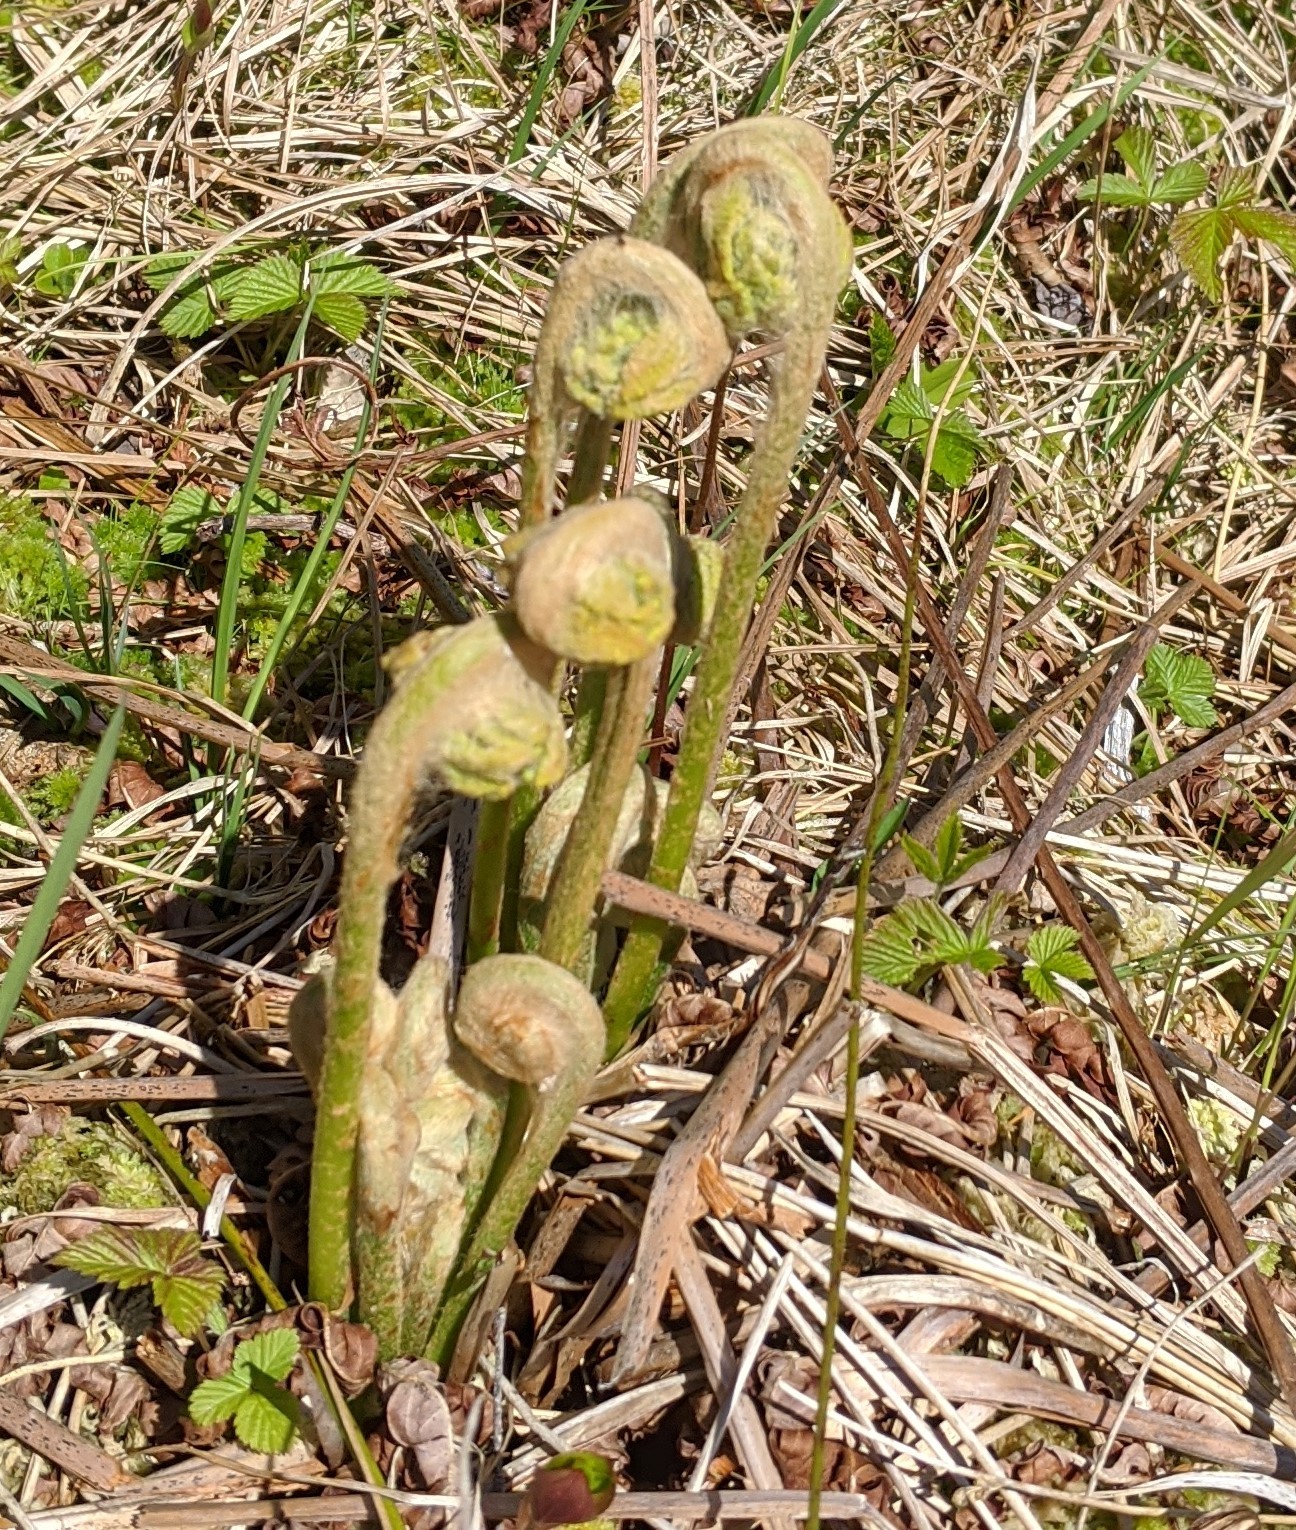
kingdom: Plantae
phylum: Tracheophyta
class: Polypodiopsida
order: Osmundales
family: Osmundaceae
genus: Osmundastrum
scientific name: Osmundastrum cinnamomeum
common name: Cinnamon fern
